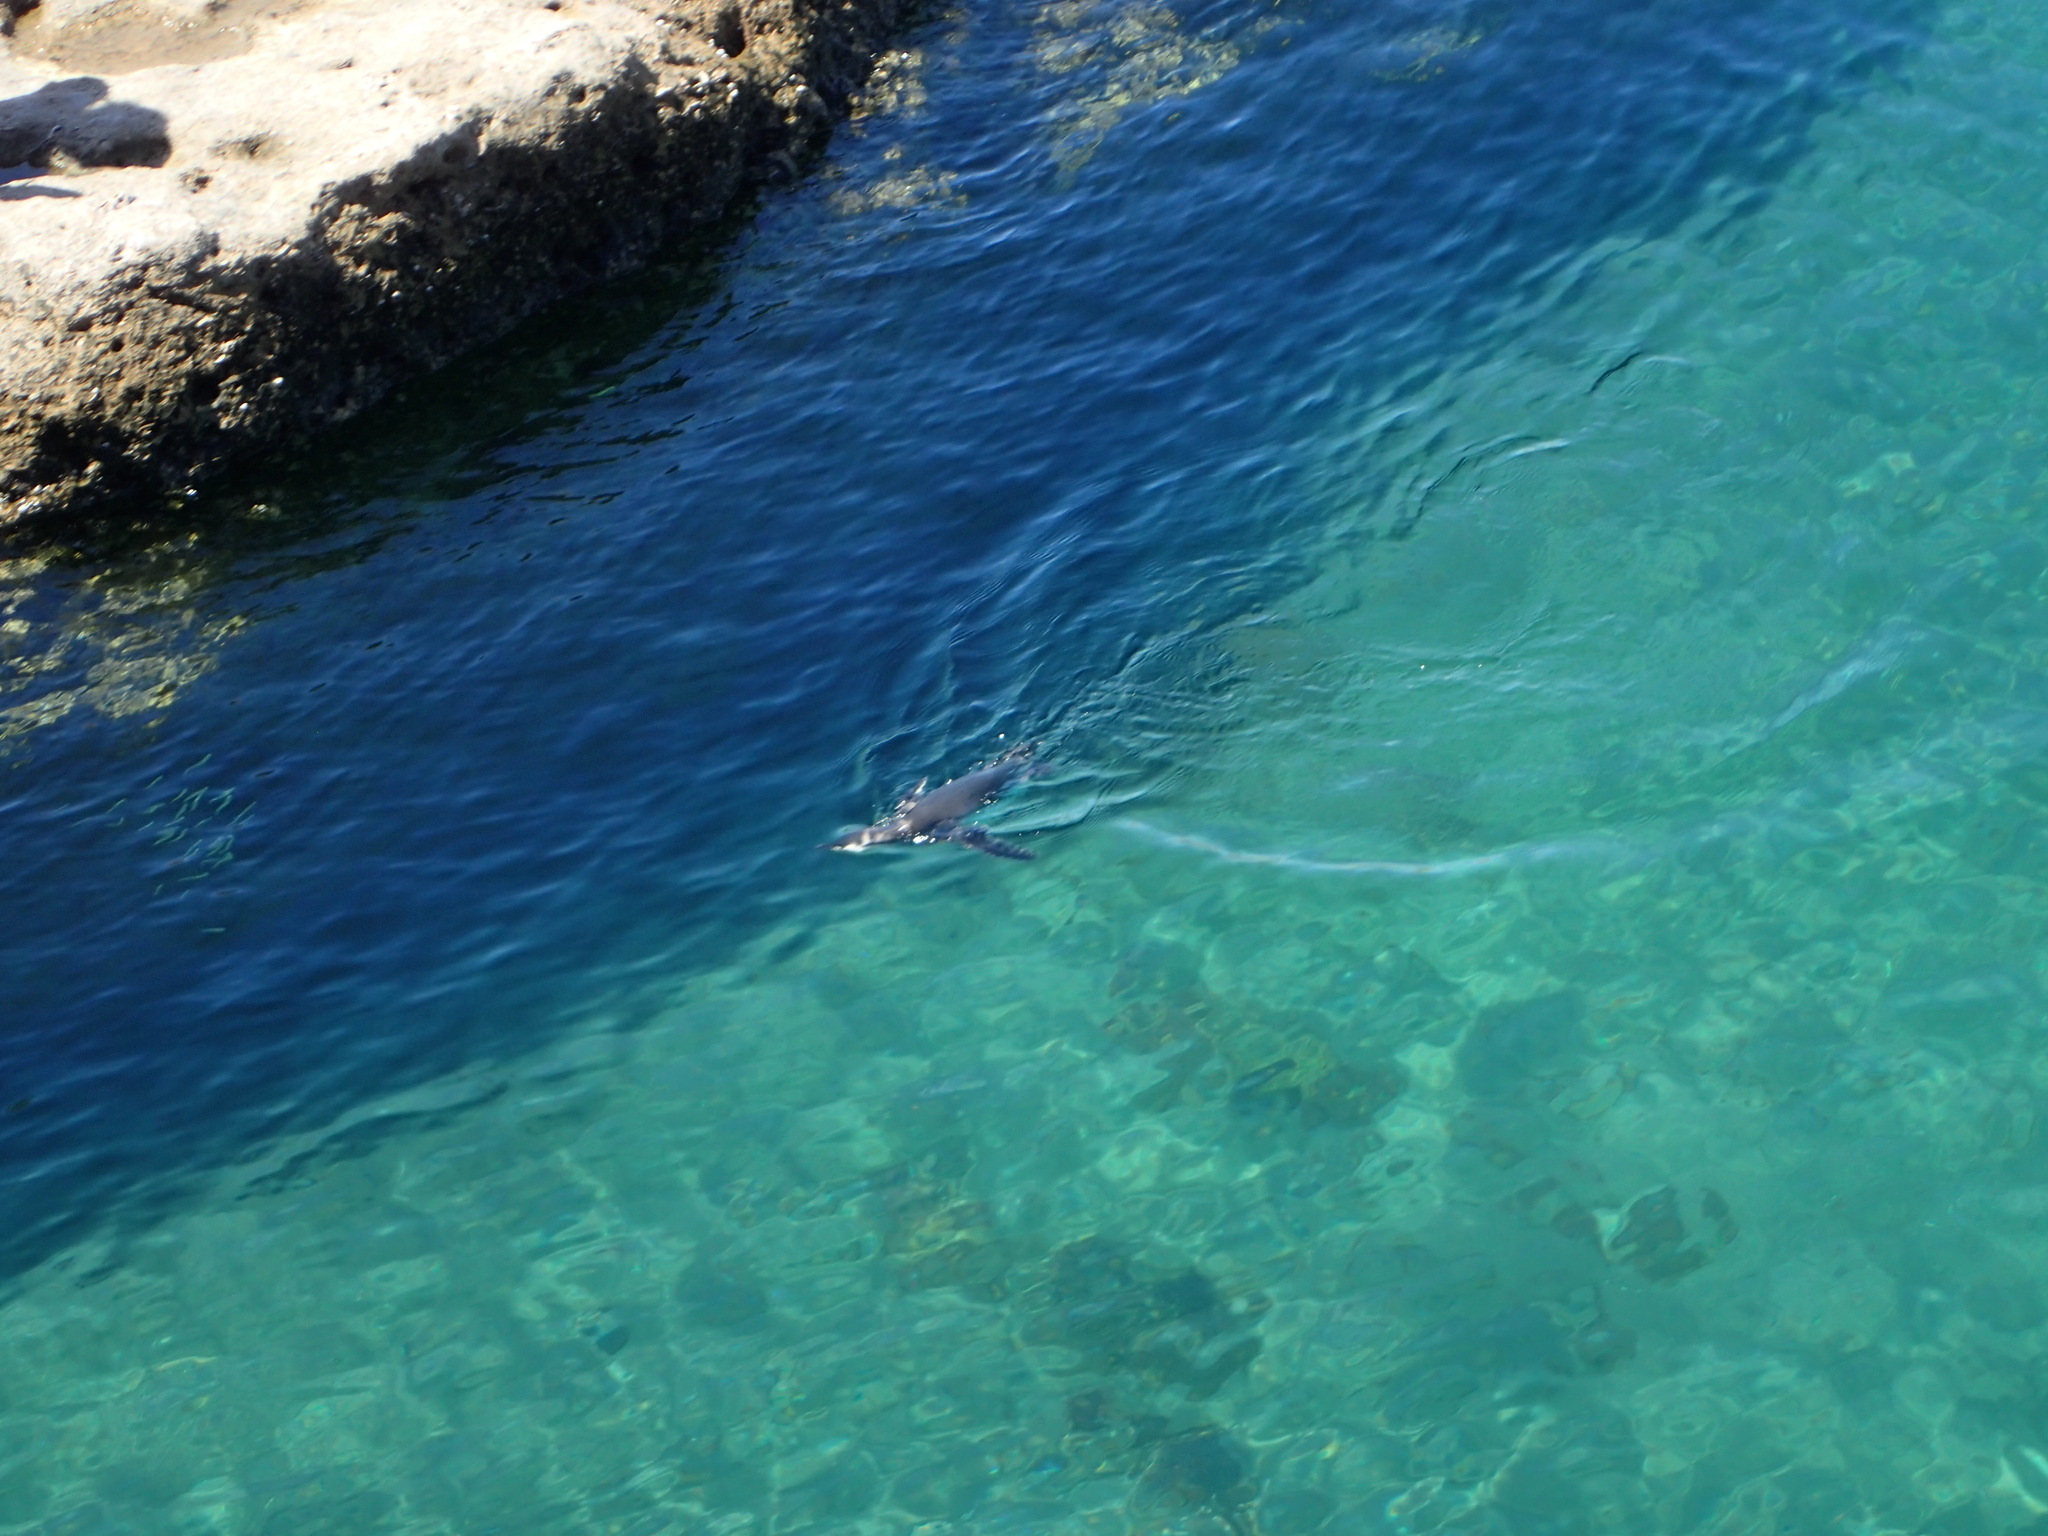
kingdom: Animalia
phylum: Chordata
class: Aves
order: Sphenisciformes
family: Spheniscidae
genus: Spheniscus
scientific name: Spheniscus magellanicus
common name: Magellanic penguin
